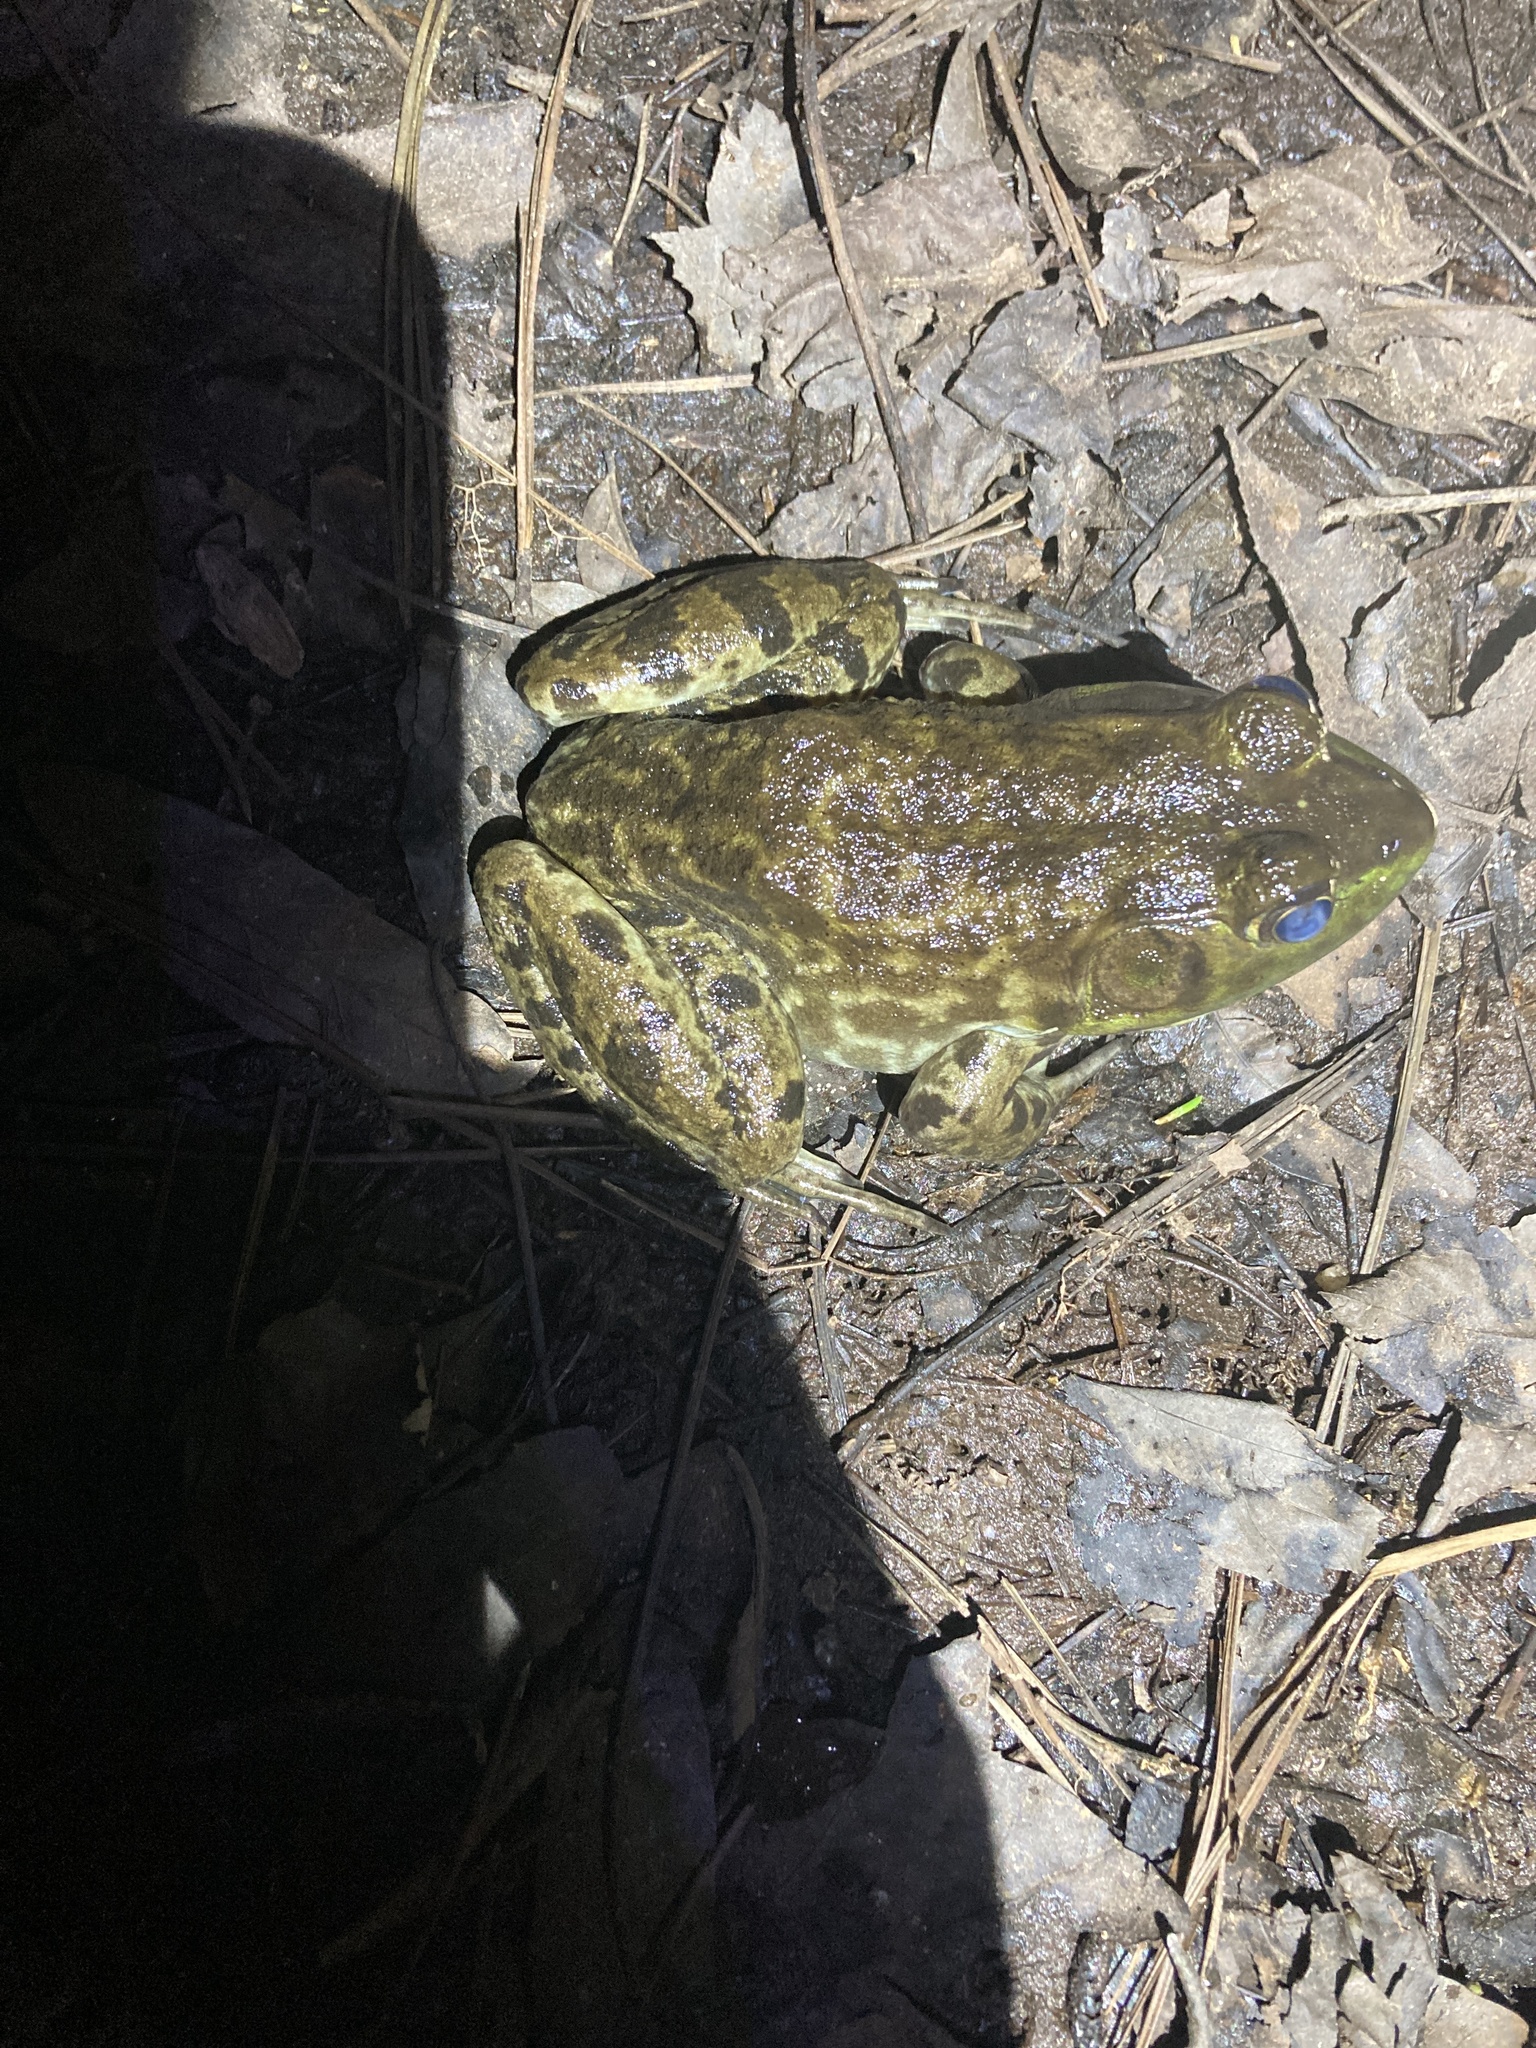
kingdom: Animalia
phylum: Chordata
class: Amphibia
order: Anura
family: Ranidae
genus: Lithobates
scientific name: Lithobates catesbeianus
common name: American bullfrog
